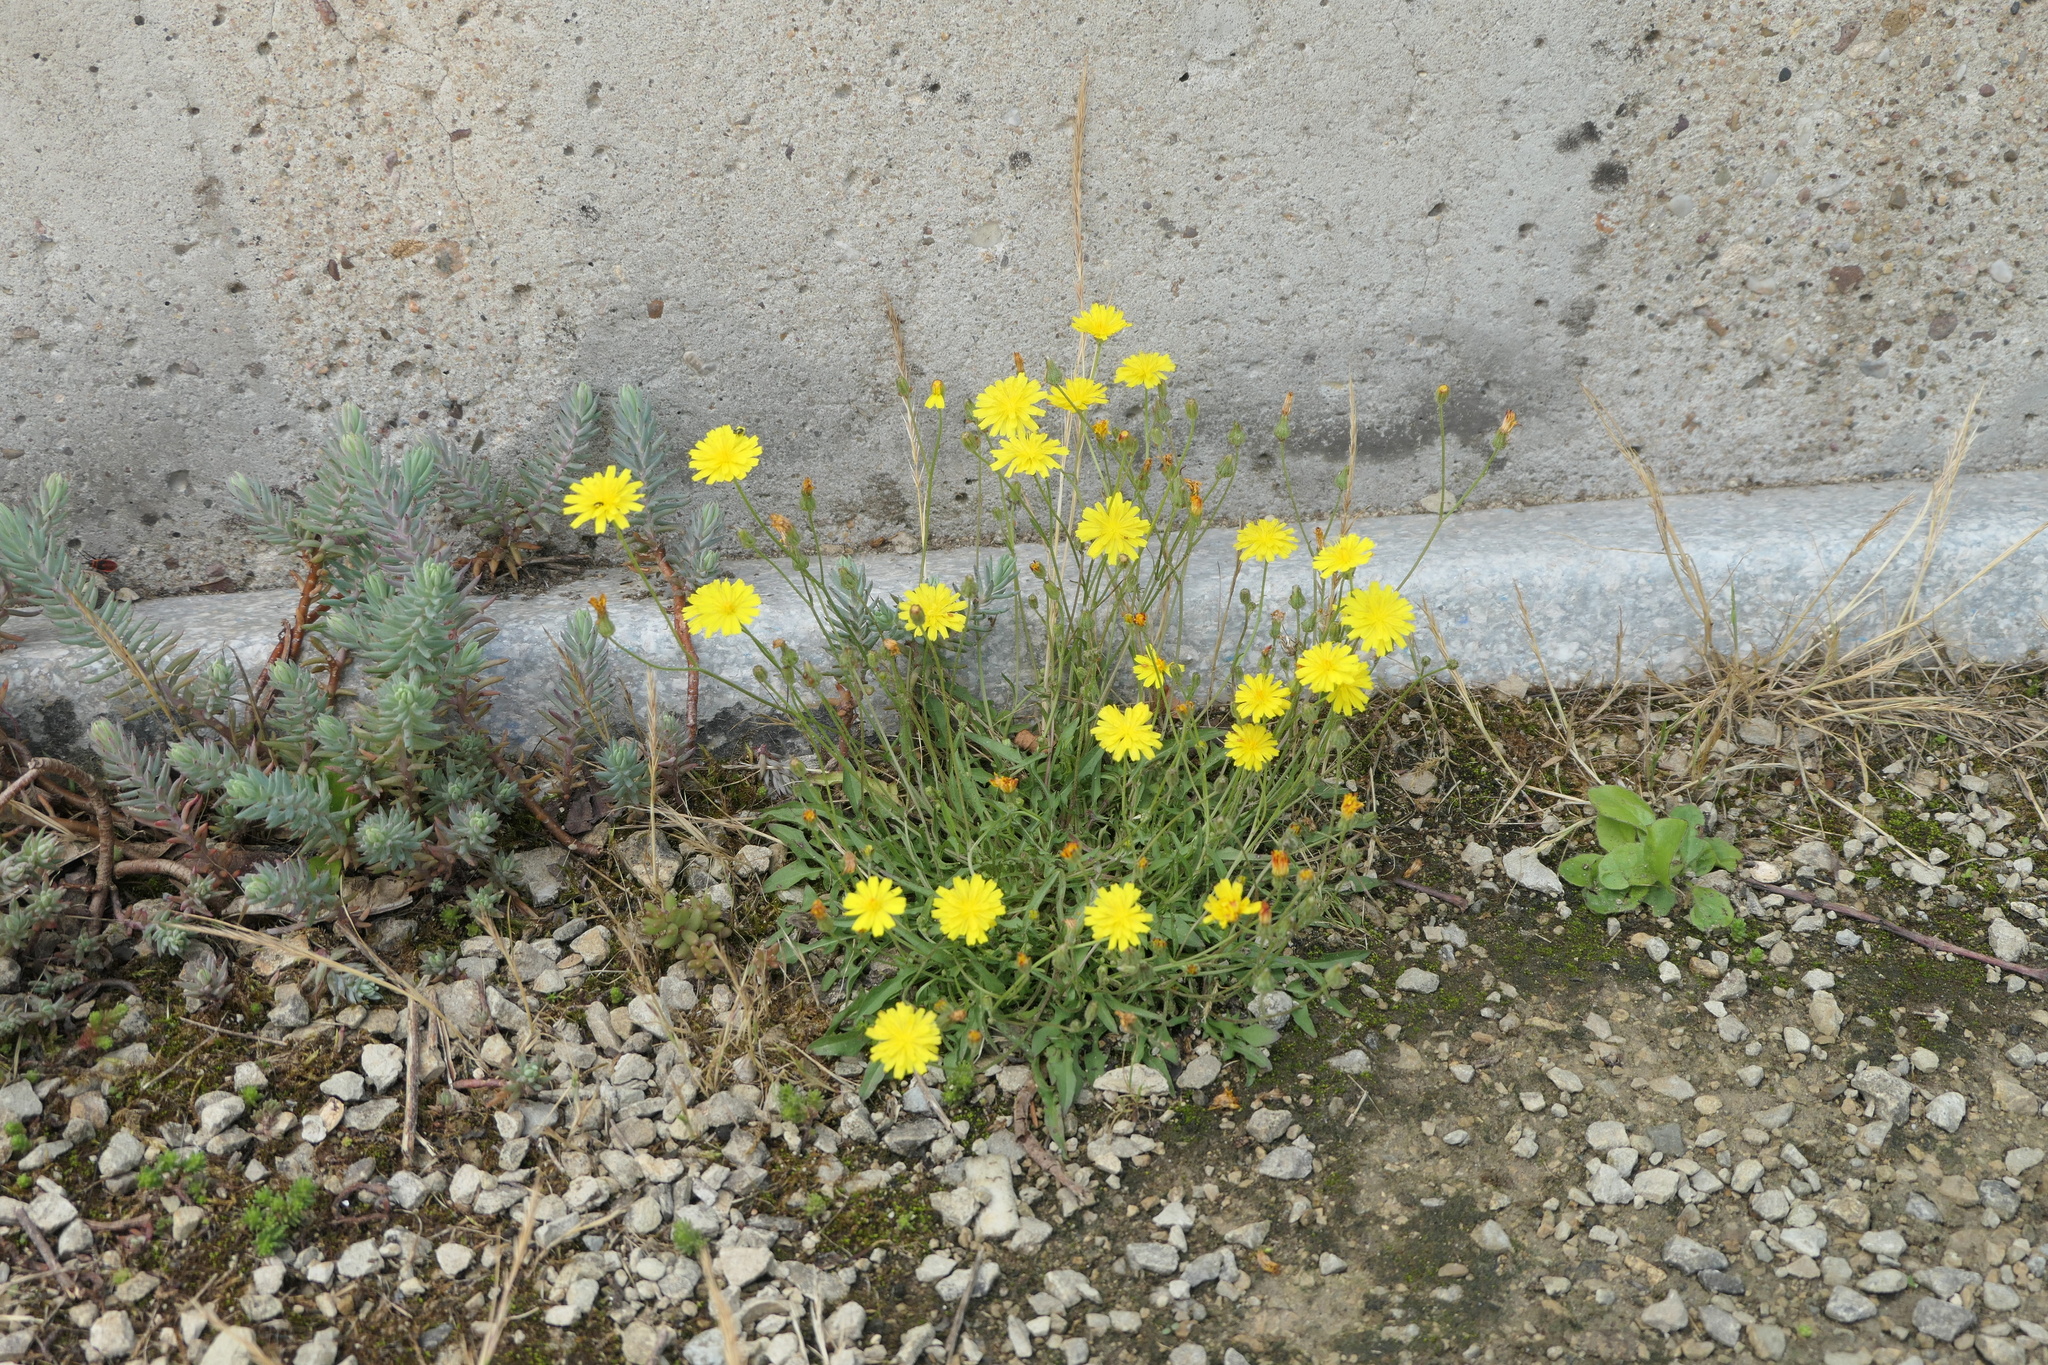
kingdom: Plantae
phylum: Tracheophyta
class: Magnoliopsida
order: Asterales
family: Asteraceae
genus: Scorzoneroides
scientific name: Scorzoneroides autumnalis
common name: Autumn hawkbit
